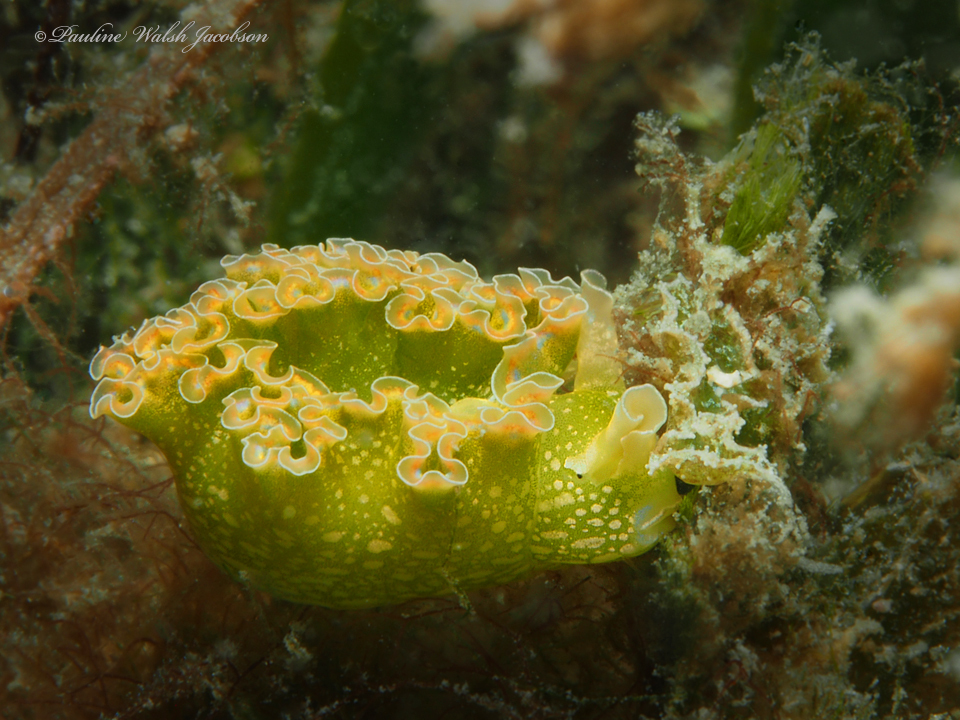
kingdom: Animalia
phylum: Mollusca
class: Gastropoda
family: Plakobranchidae
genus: Elysia
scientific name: Elysia crispata
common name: Lettuce slug
